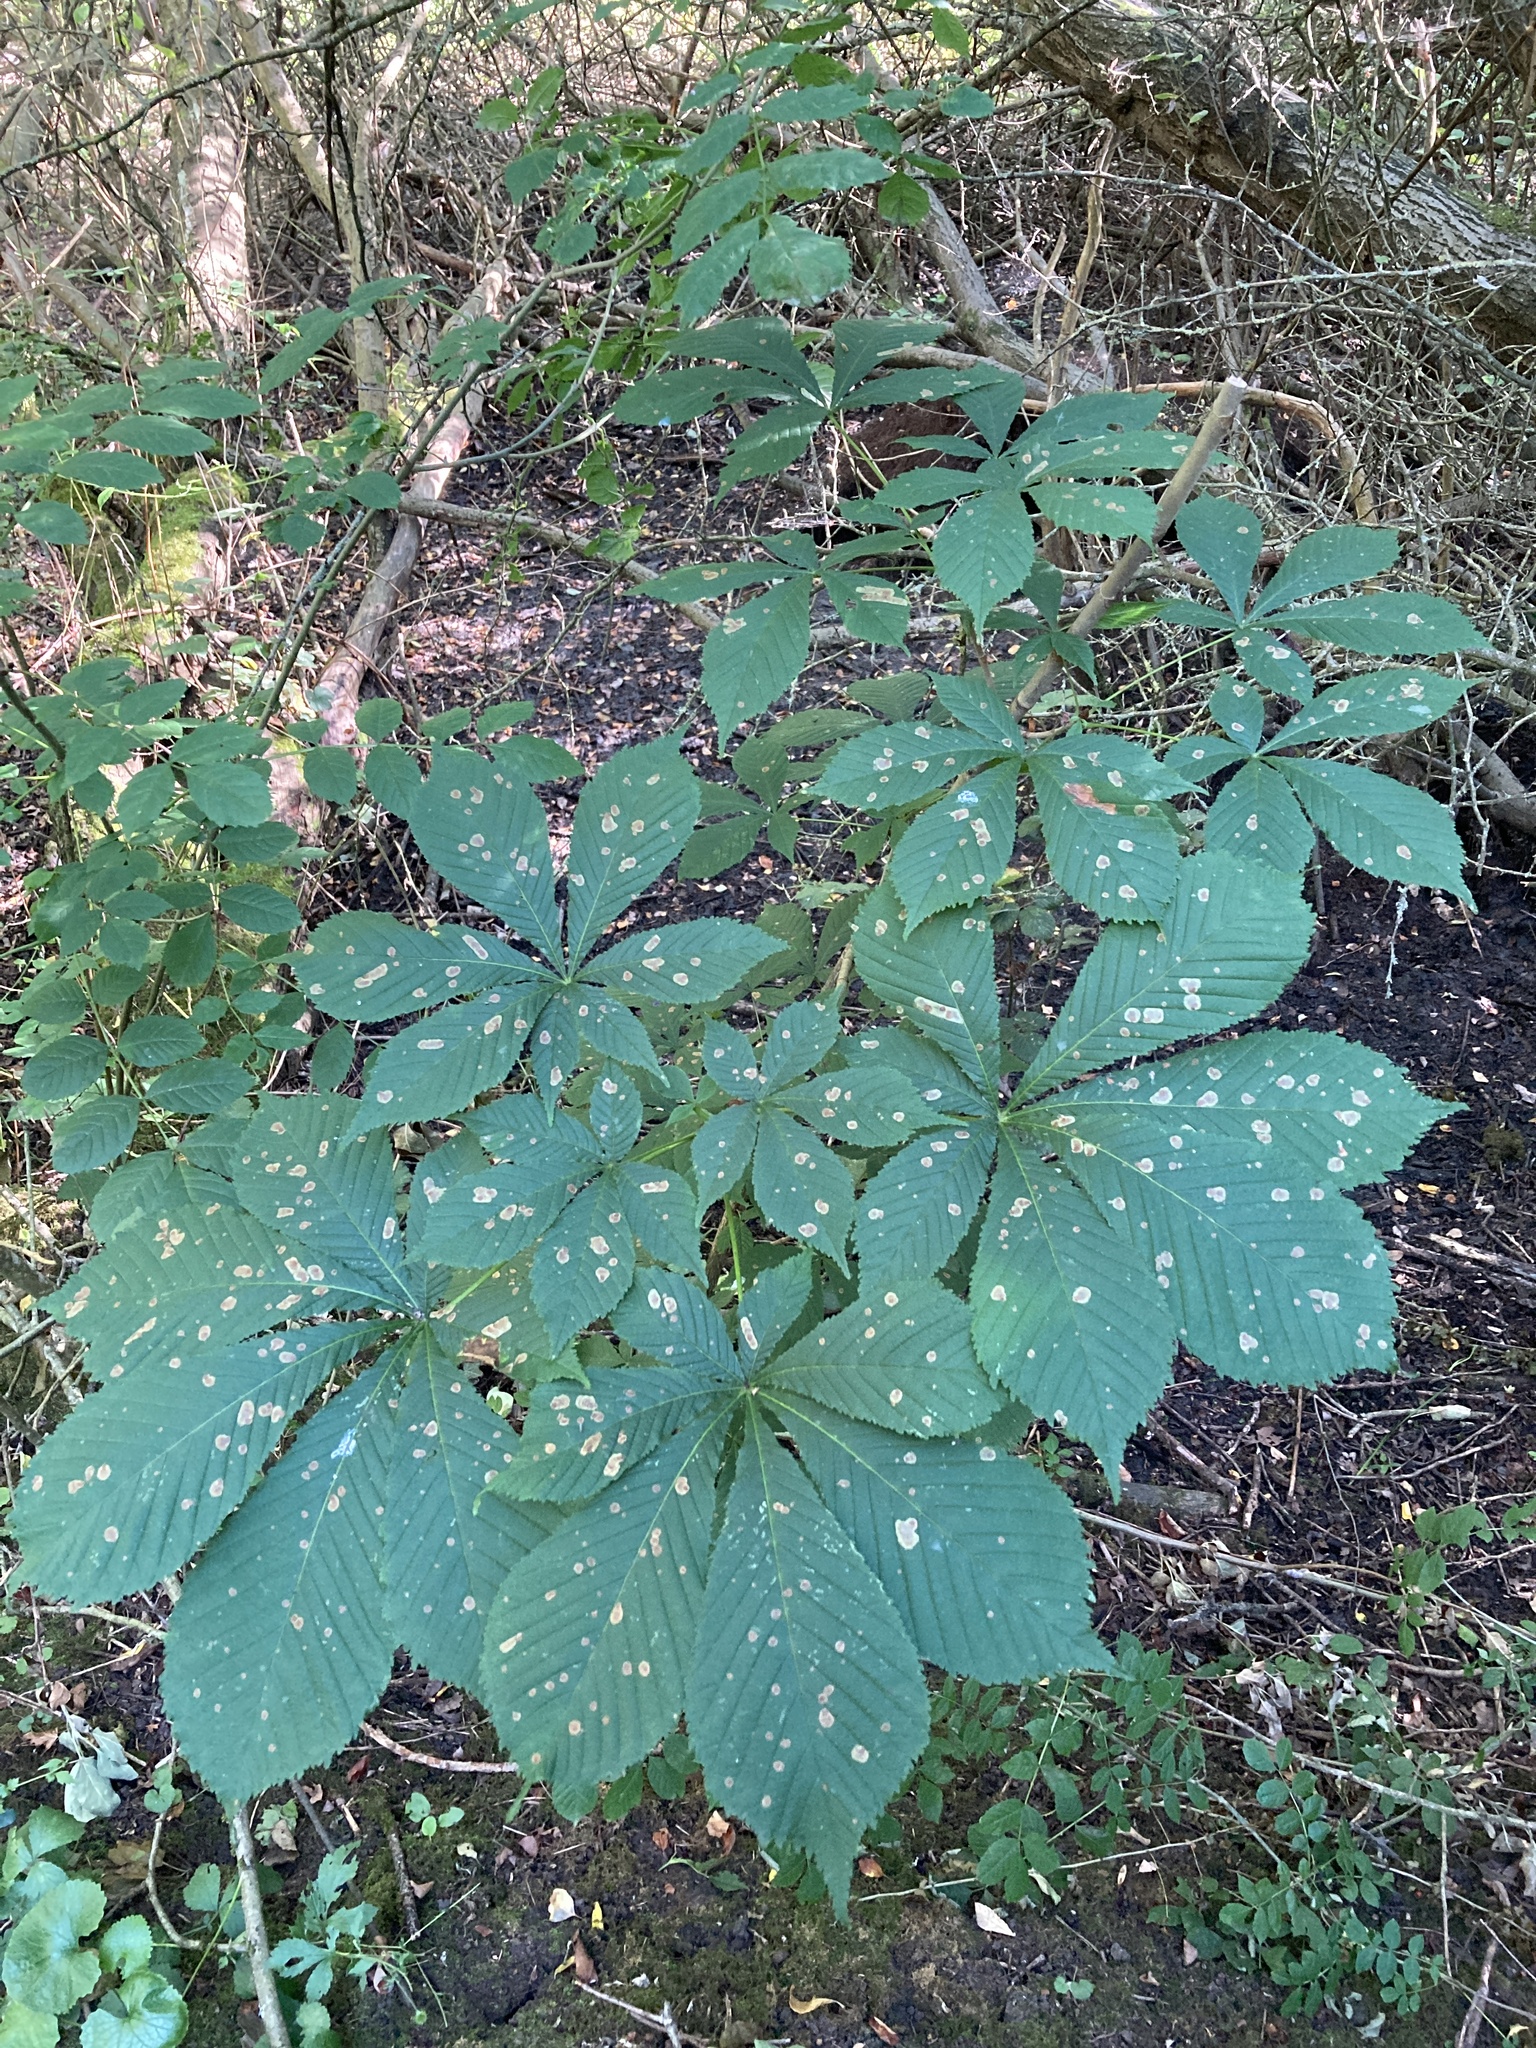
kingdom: Animalia
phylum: Arthropoda
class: Insecta
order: Lepidoptera
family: Gracillariidae
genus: Cameraria
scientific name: Cameraria ohridella
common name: Horse-chestnut leaf-miner
